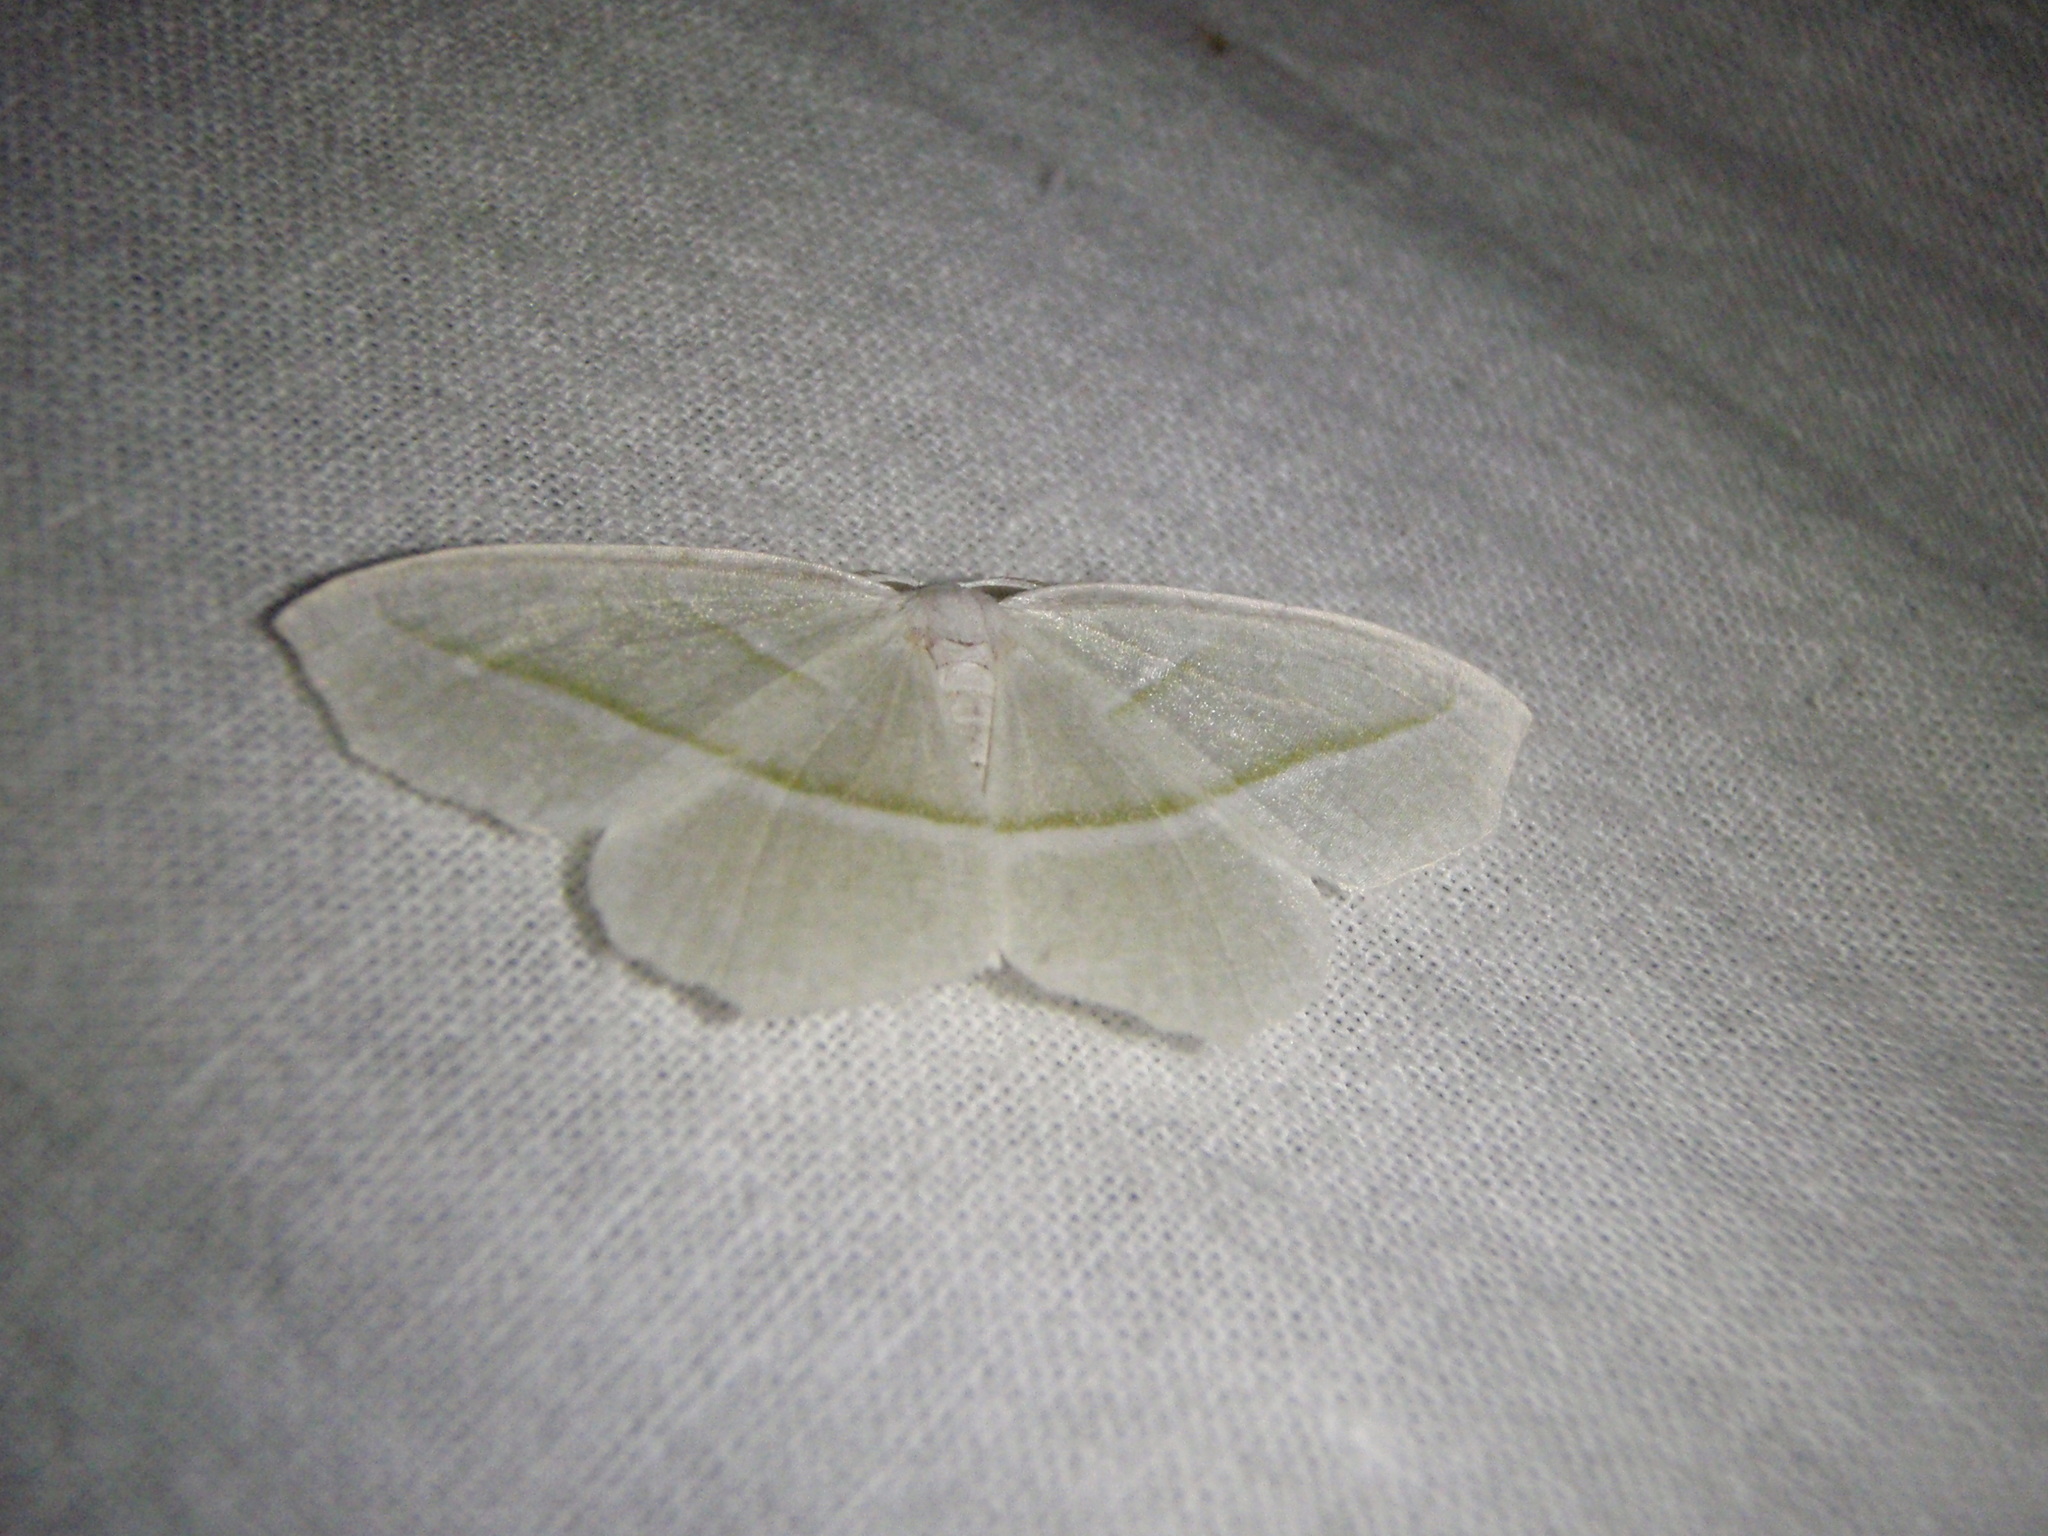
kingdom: Animalia
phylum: Arthropoda
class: Insecta
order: Lepidoptera
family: Geometridae
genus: Campaea
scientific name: Campaea perlata
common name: Fringed looper
